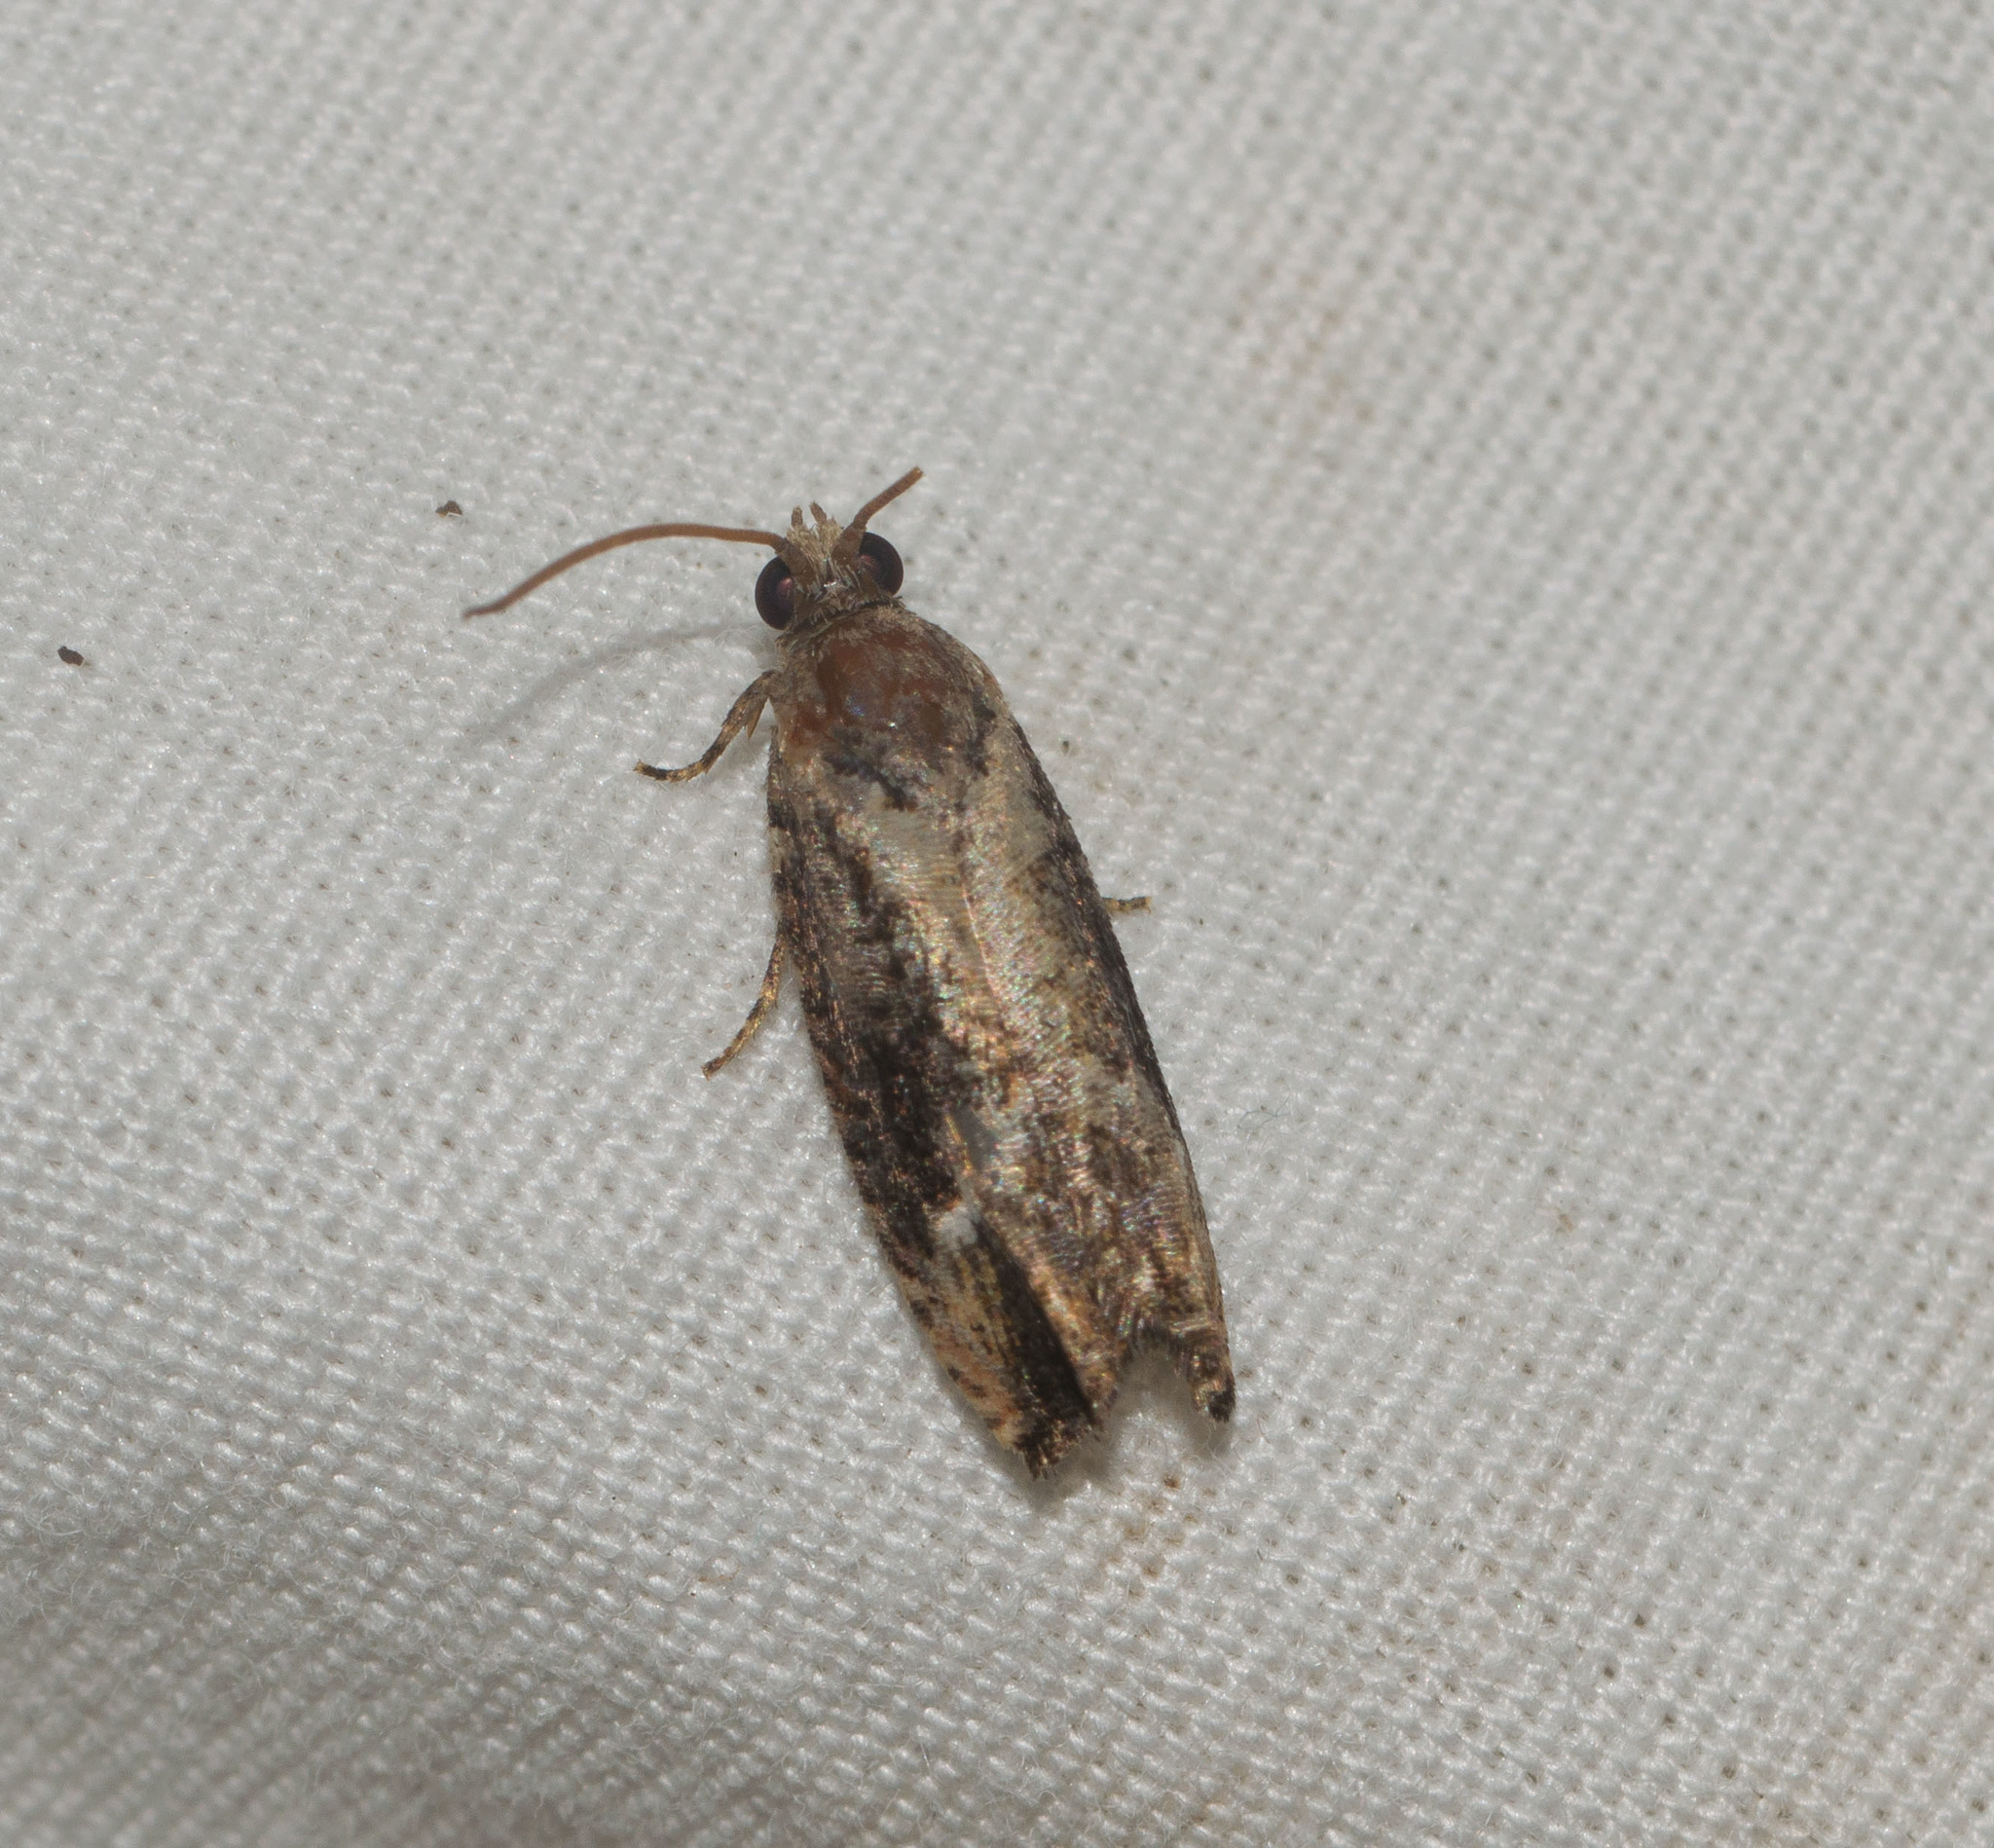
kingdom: Animalia
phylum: Arthropoda
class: Insecta
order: Lepidoptera
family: Tortricidae
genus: Cydia
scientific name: Cydia conspicua
